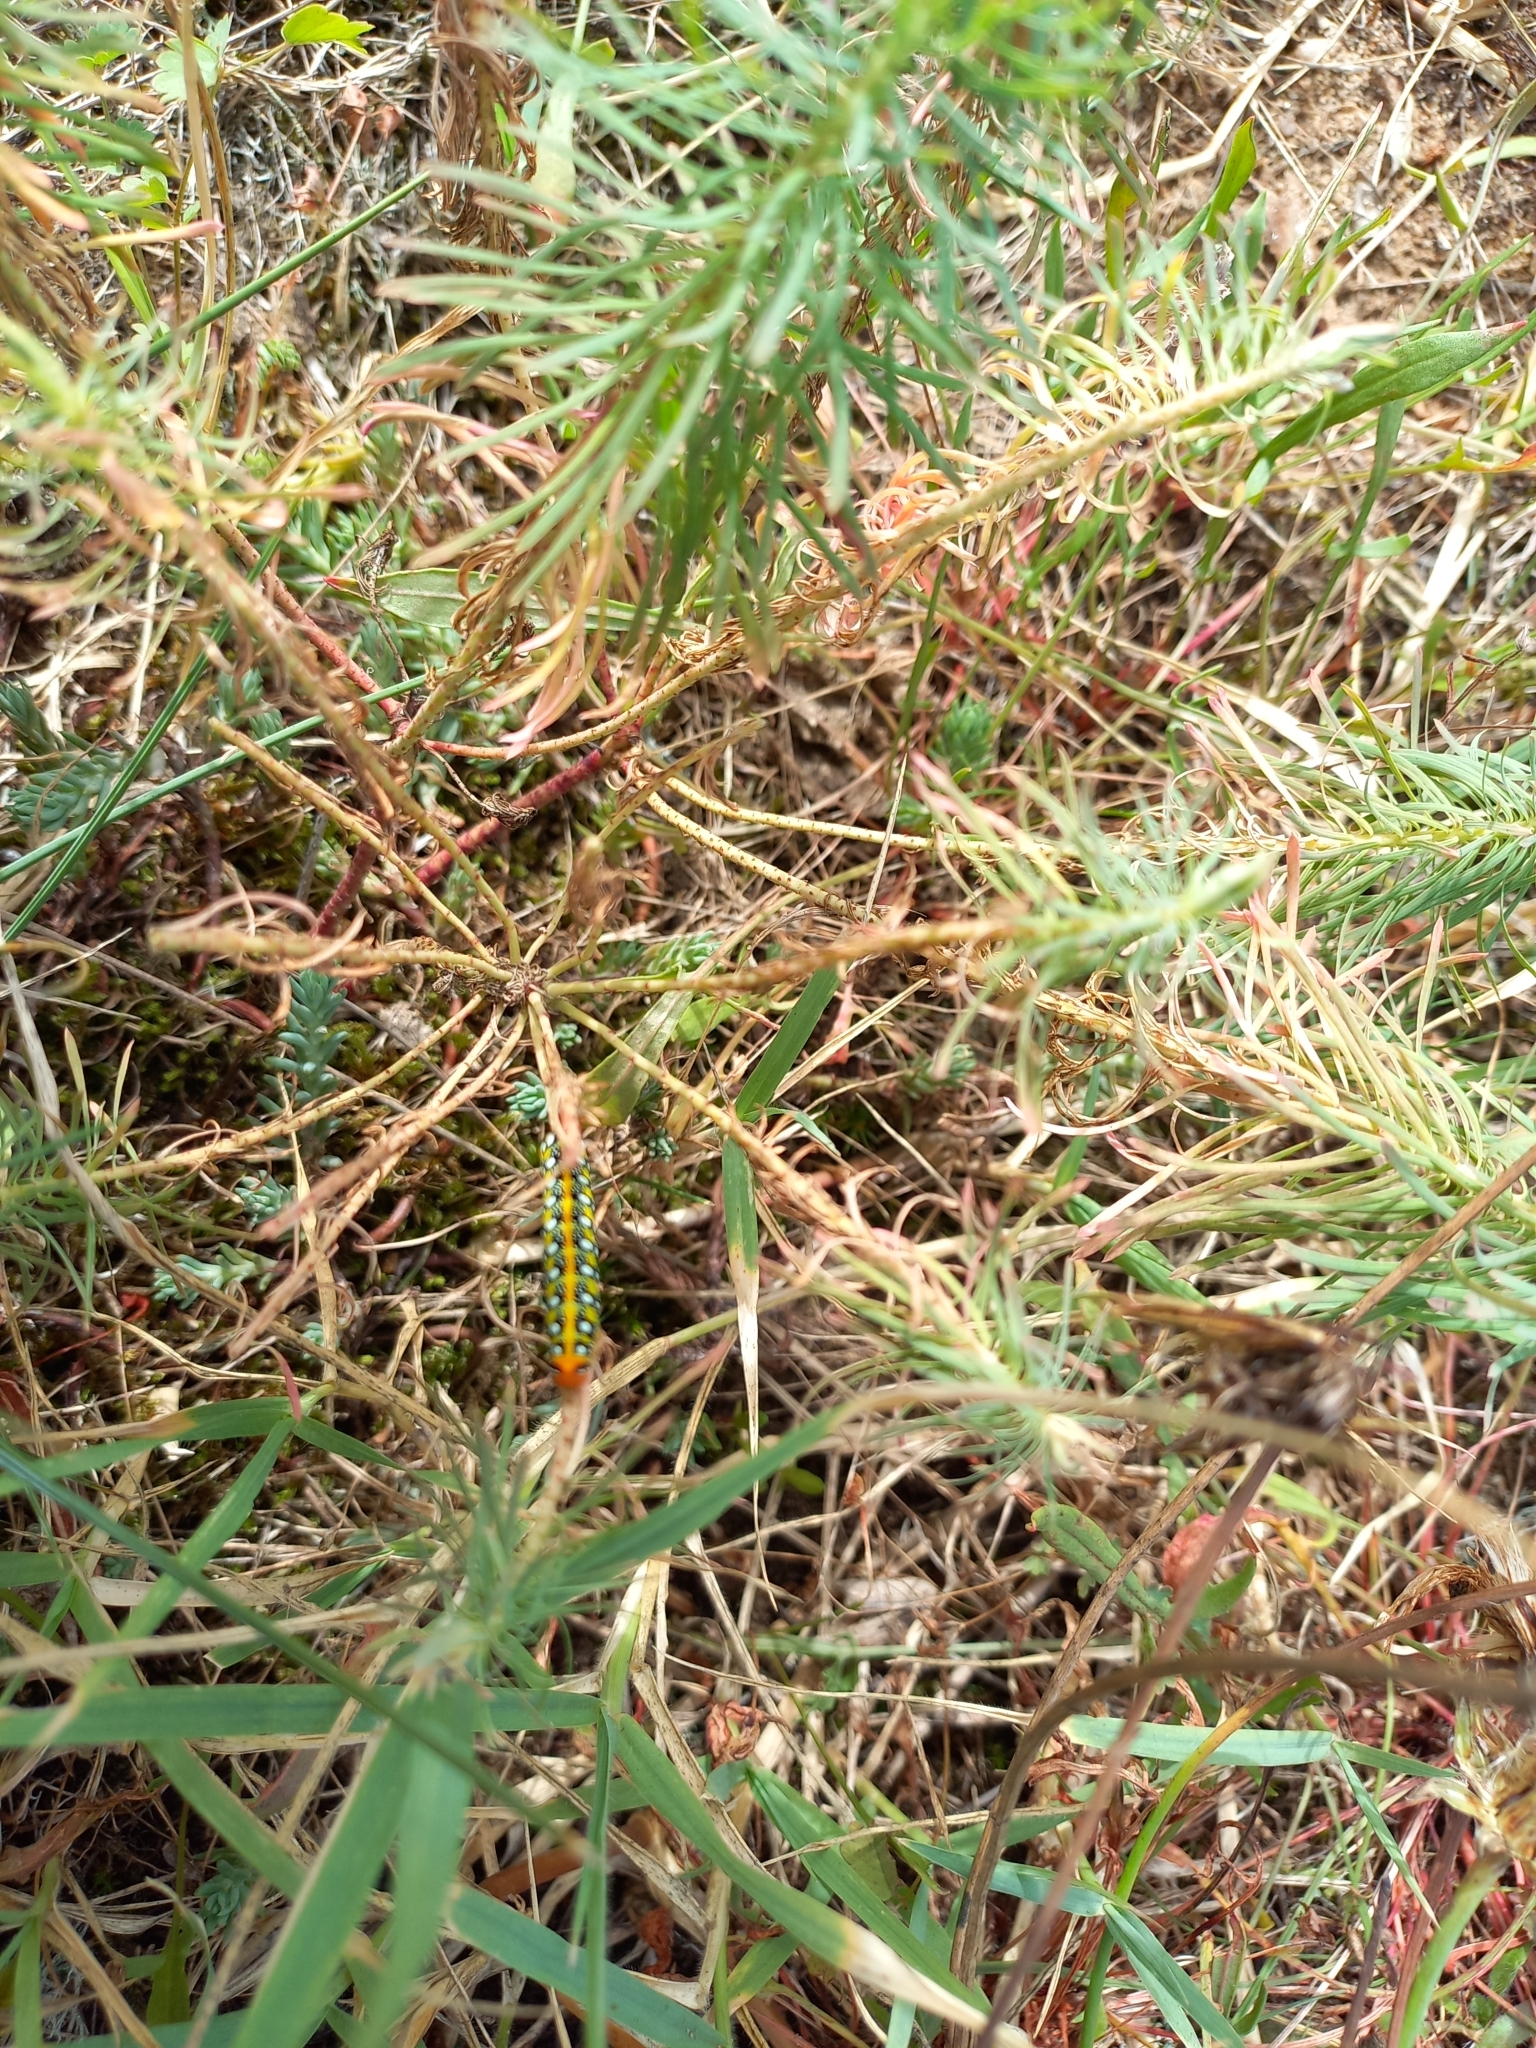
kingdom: Animalia
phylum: Arthropoda
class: Insecta
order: Lepidoptera
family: Sphingidae
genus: Hyles
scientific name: Hyles euphorbiae
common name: Spurge hawk-moth
